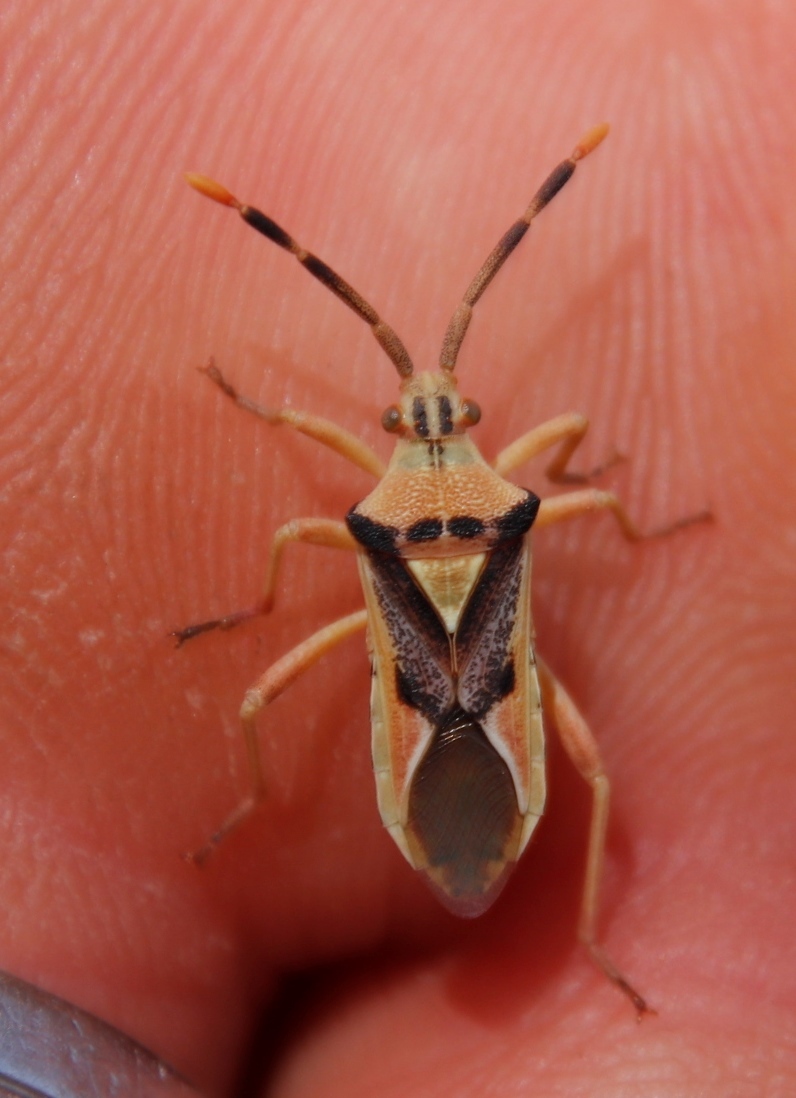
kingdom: Animalia
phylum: Arthropoda
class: Insecta
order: Hemiptera
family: Coreidae
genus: Ceratopachys
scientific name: Ceratopachys nigricornis
